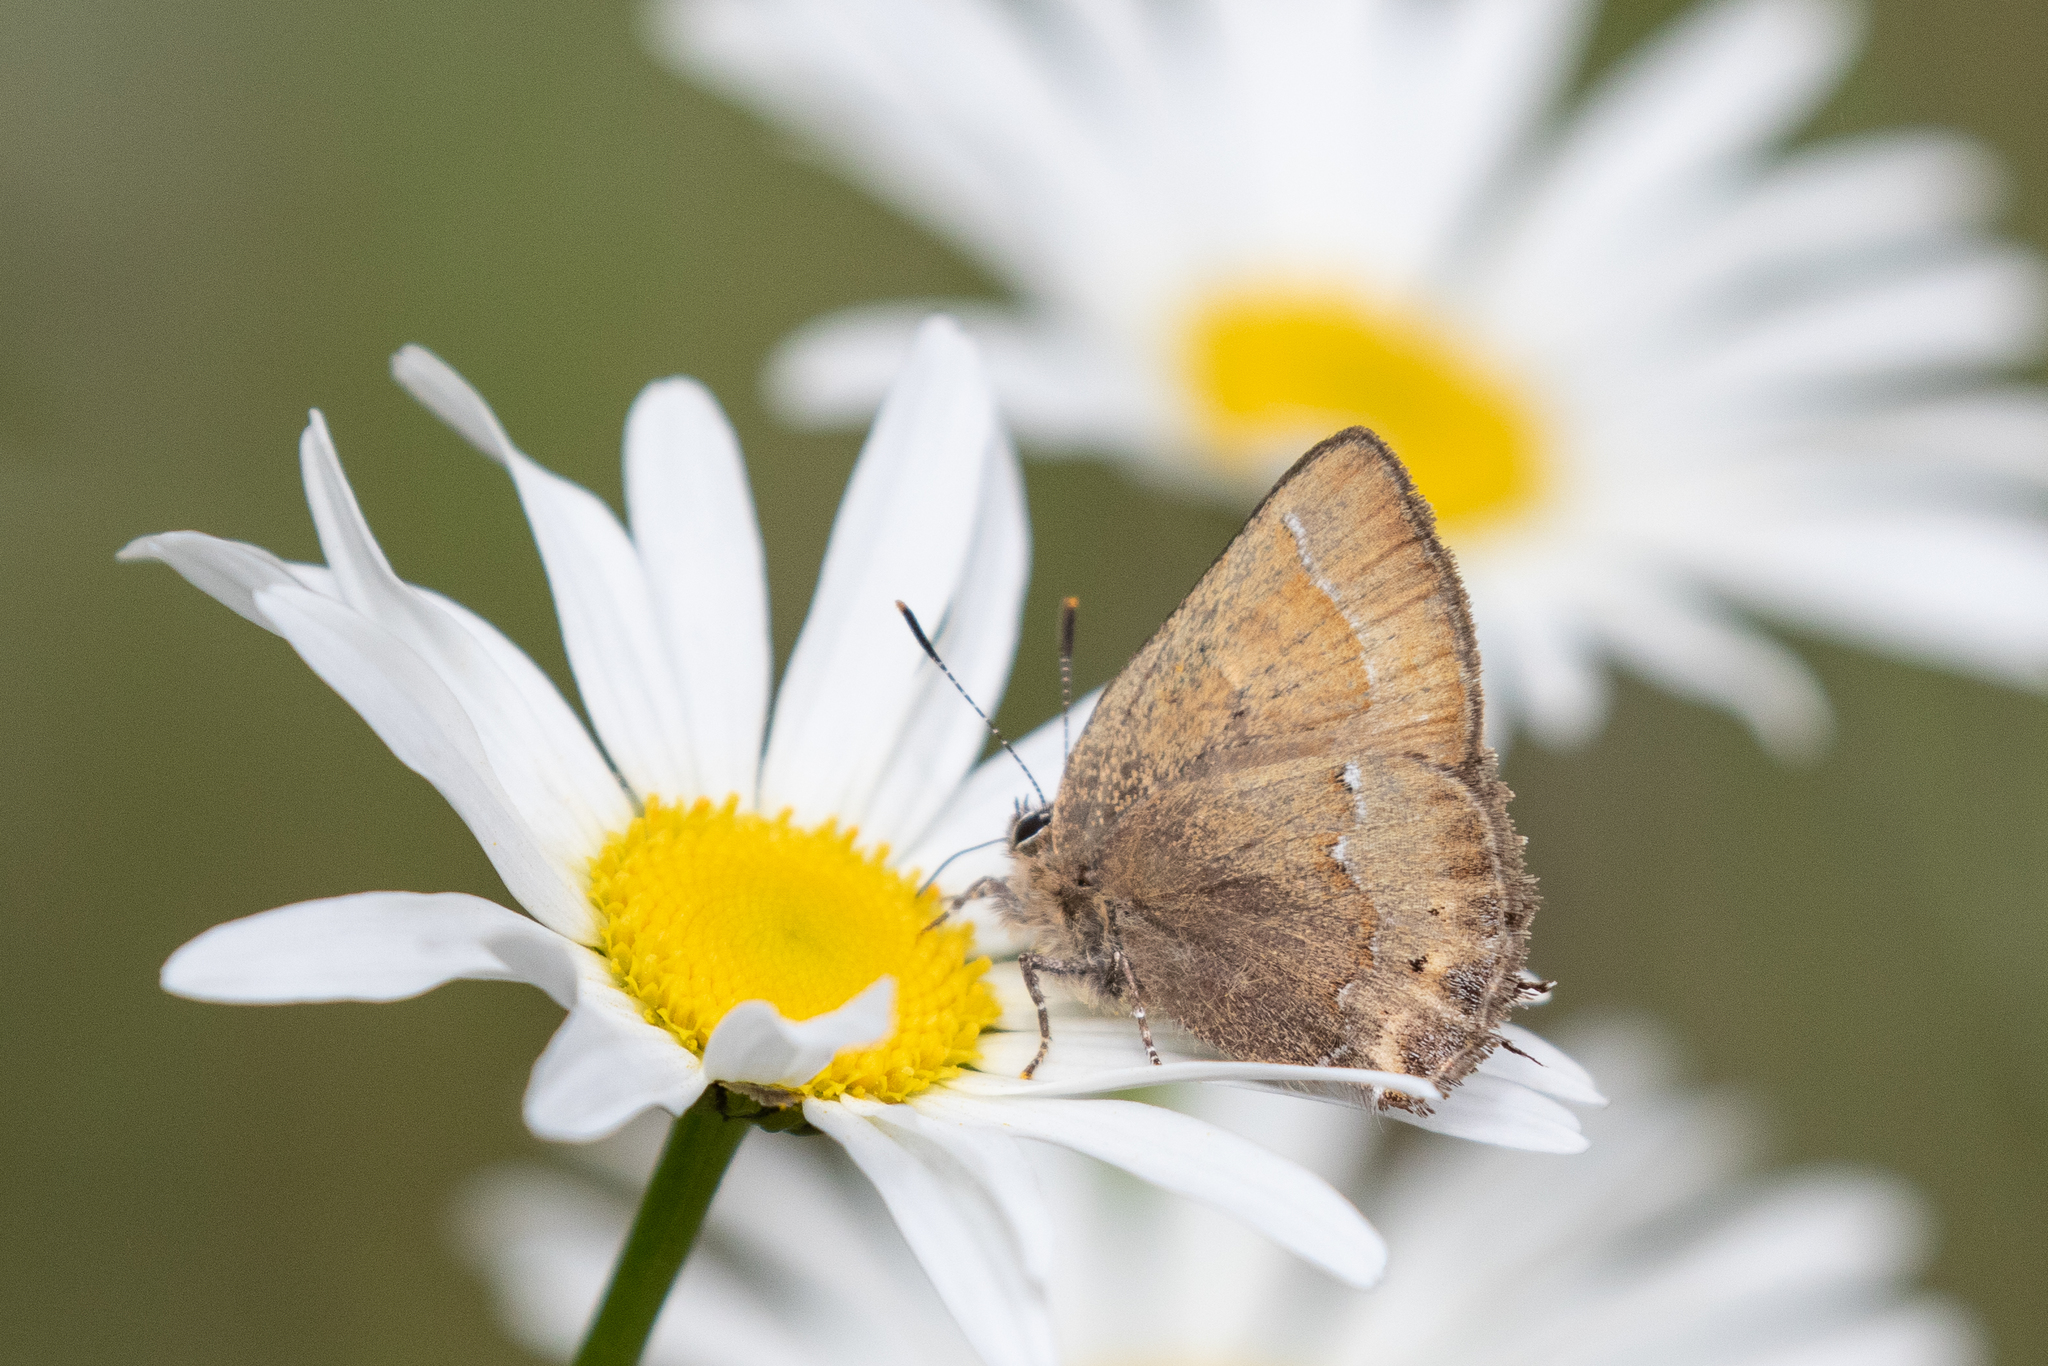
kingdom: Animalia
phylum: Arthropoda
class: Insecta
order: Lepidoptera
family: Lycaenidae
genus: Mitoura
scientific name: Mitoura gryneus
